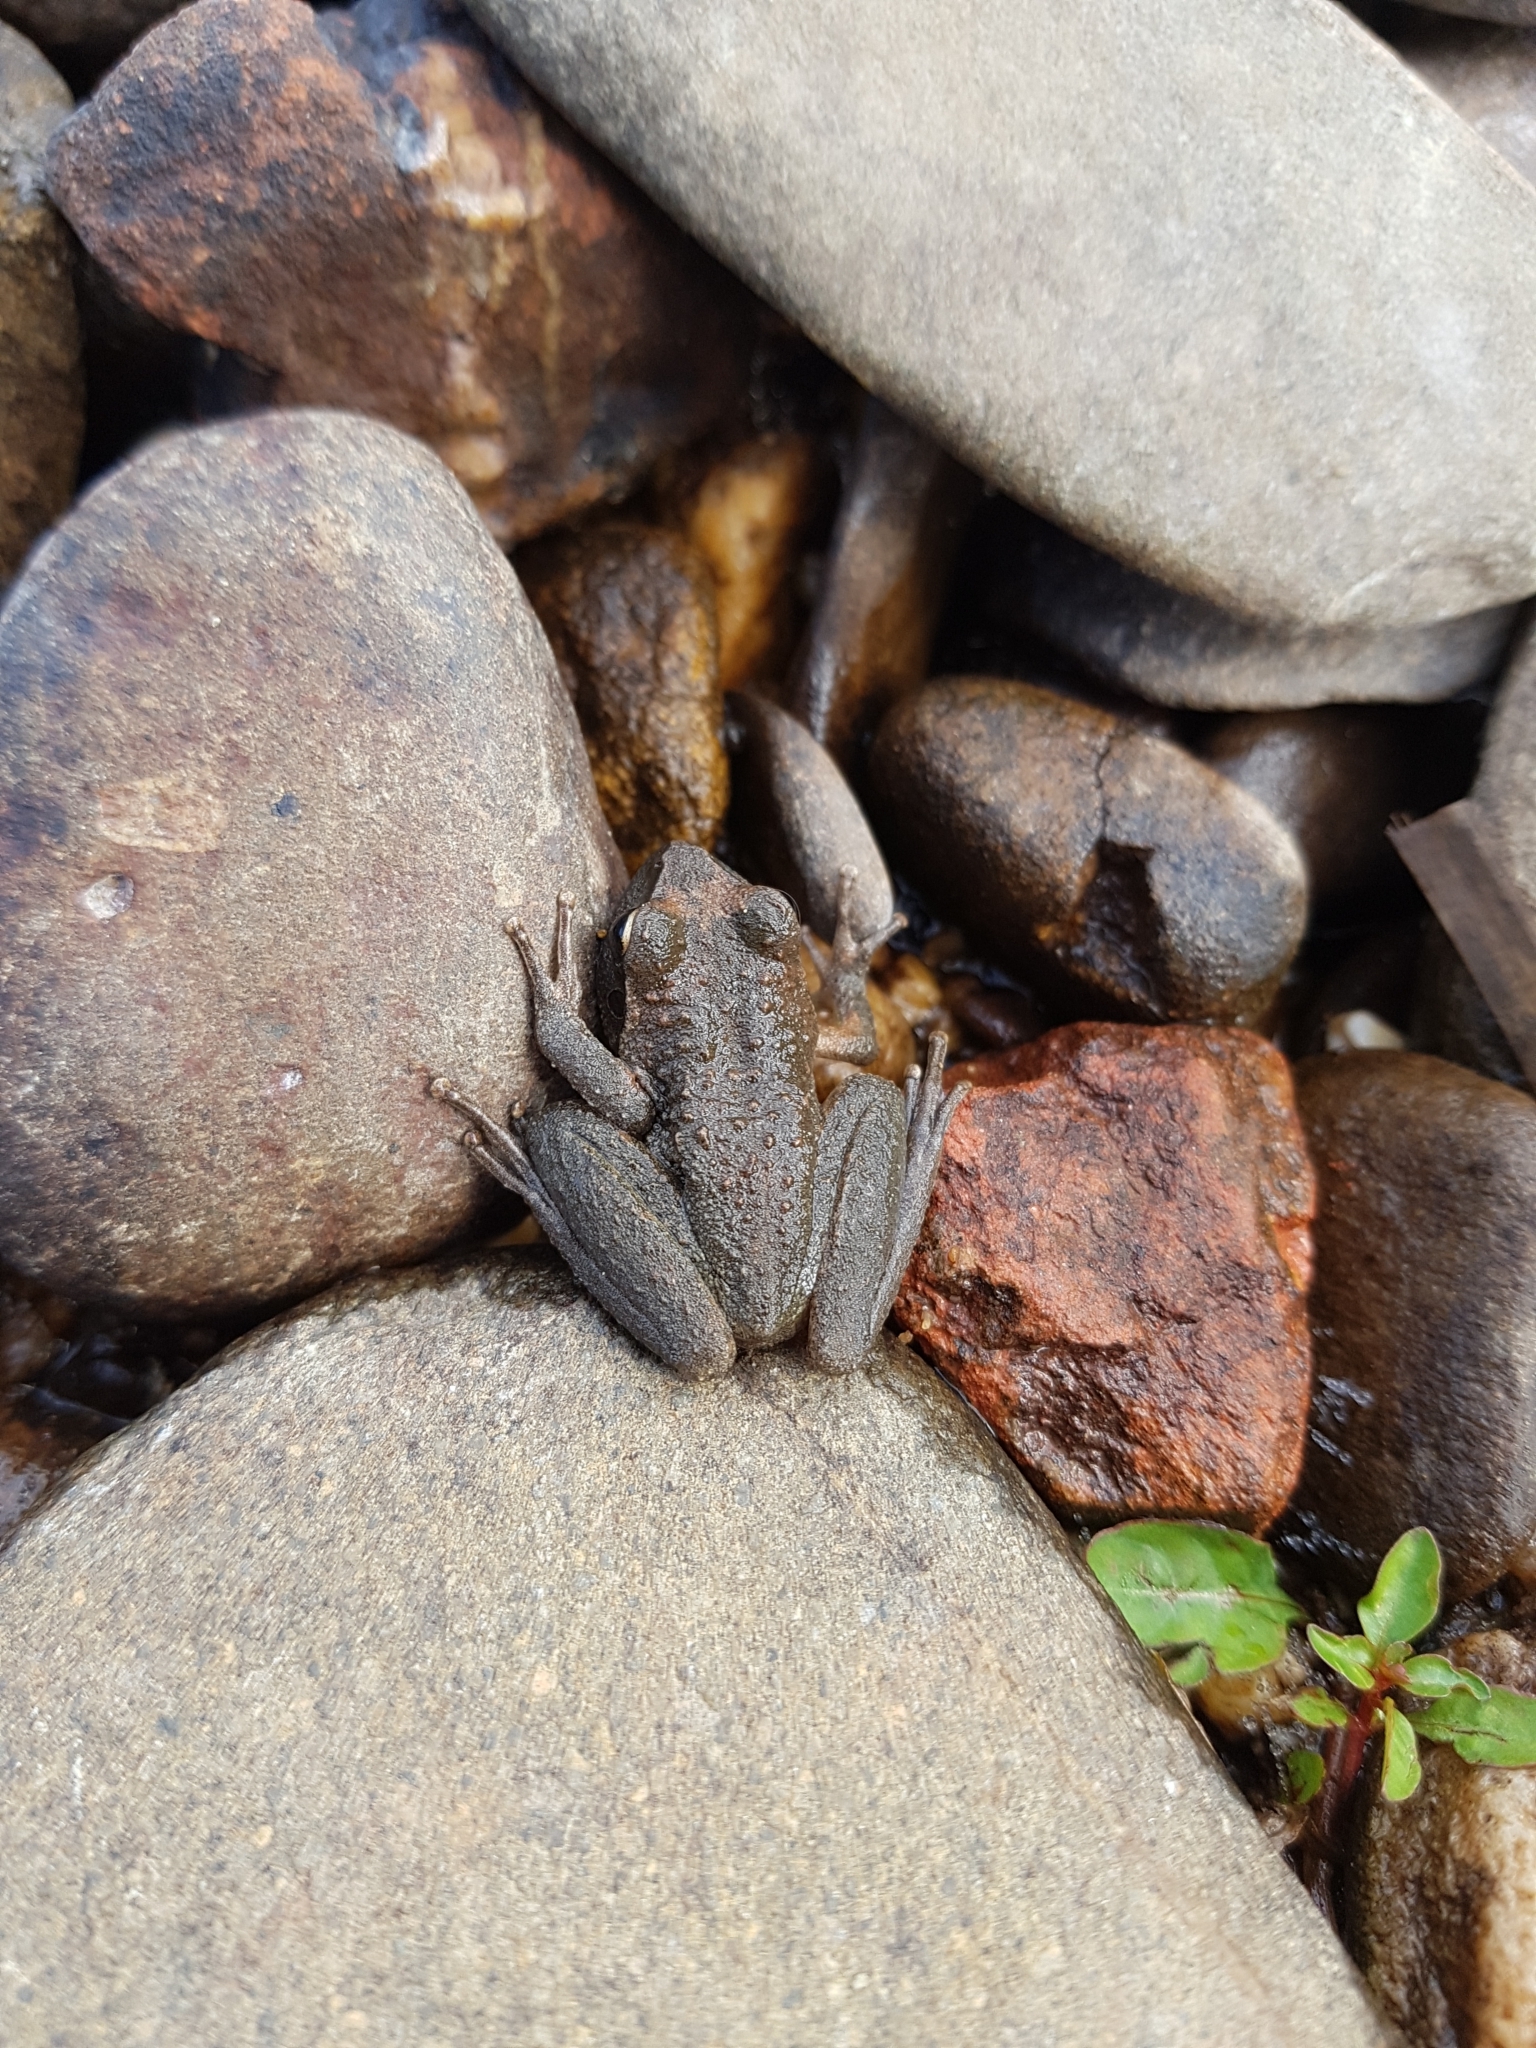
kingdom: Animalia
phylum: Chordata
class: Amphibia
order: Anura
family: Pelodryadidae
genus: Ranoidea
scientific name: Ranoidea lesueurii
